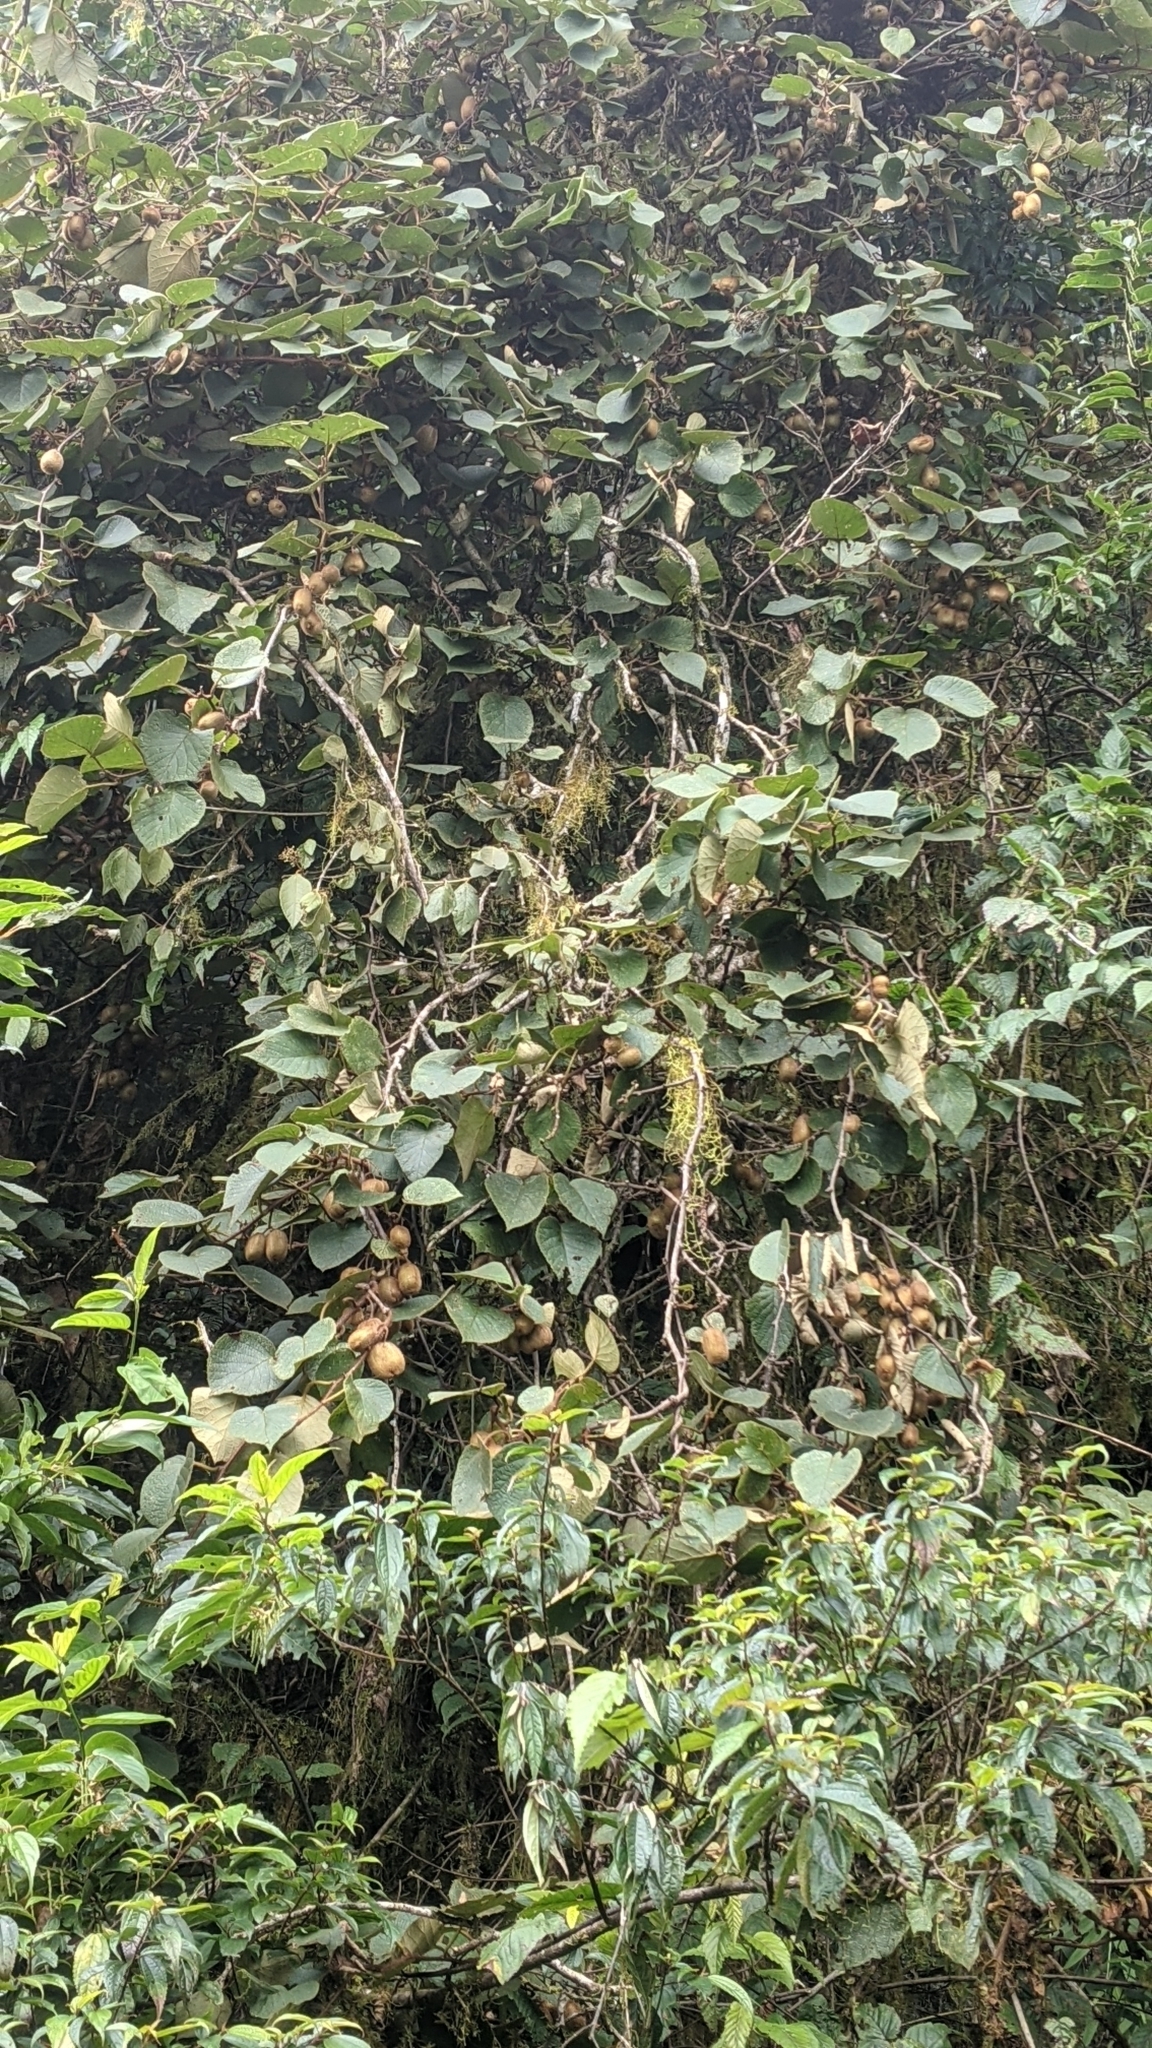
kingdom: Plantae
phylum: Tracheophyta
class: Magnoliopsida
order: Ericales
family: Actinidiaceae
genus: Actinidia
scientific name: Actinidia chinensis
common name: Kiwi
